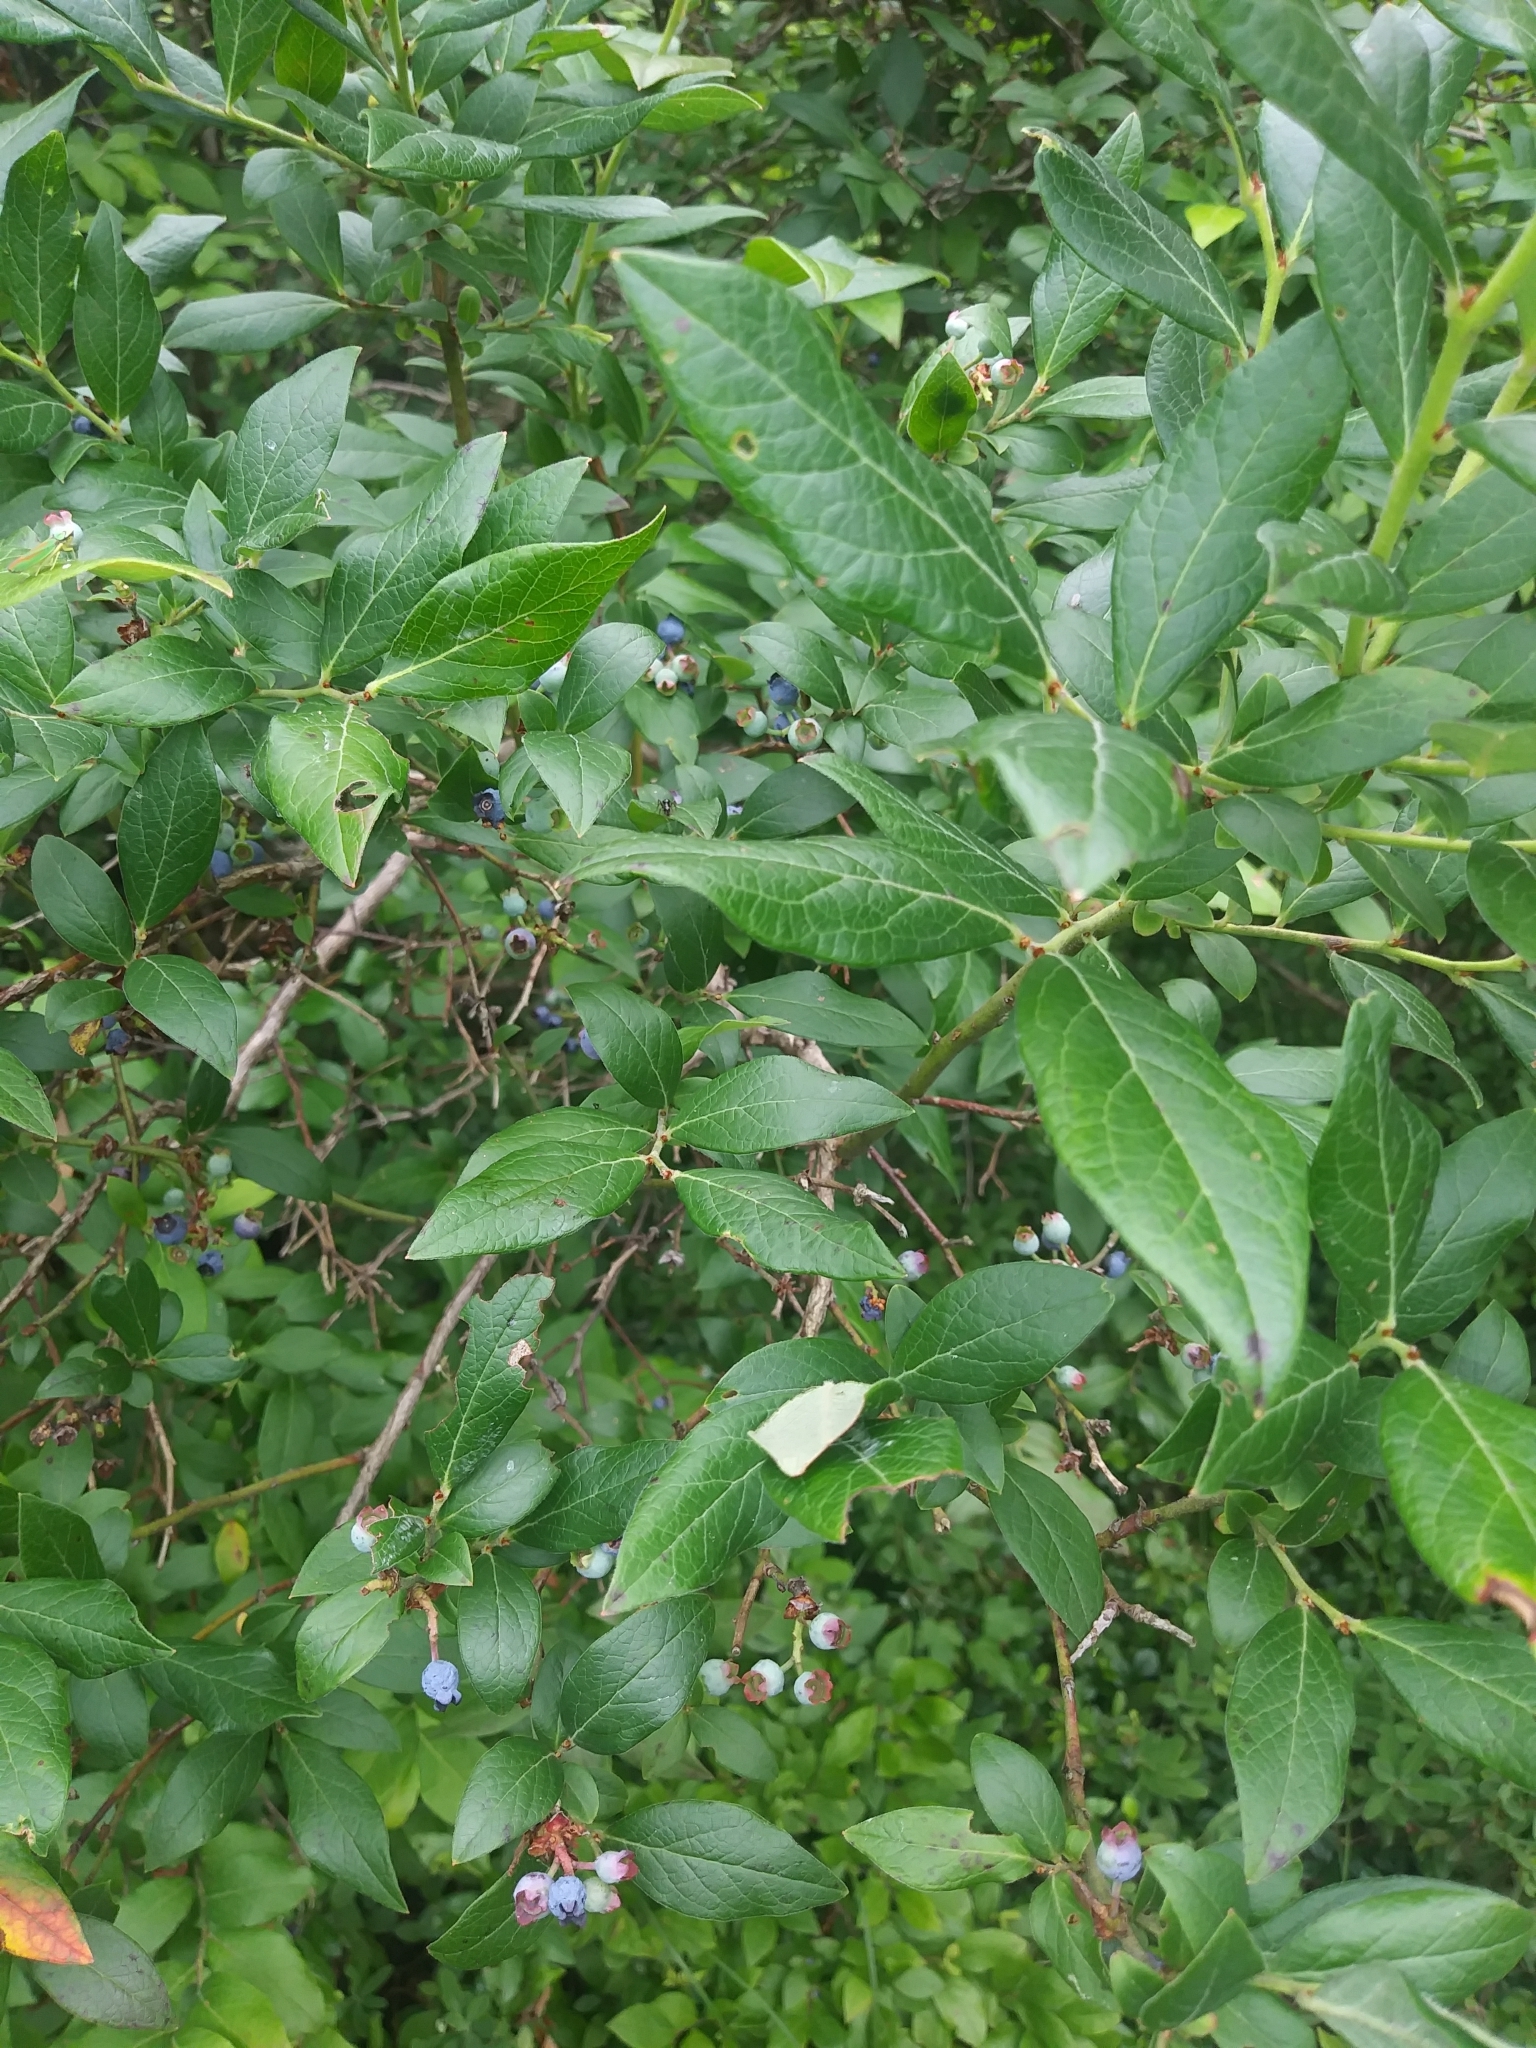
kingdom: Plantae
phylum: Tracheophyta
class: Magnoliopsida
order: Ericales
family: Ericaceae
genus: Vaccinium
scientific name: Vaccinium corymbosum
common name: Blueberry
